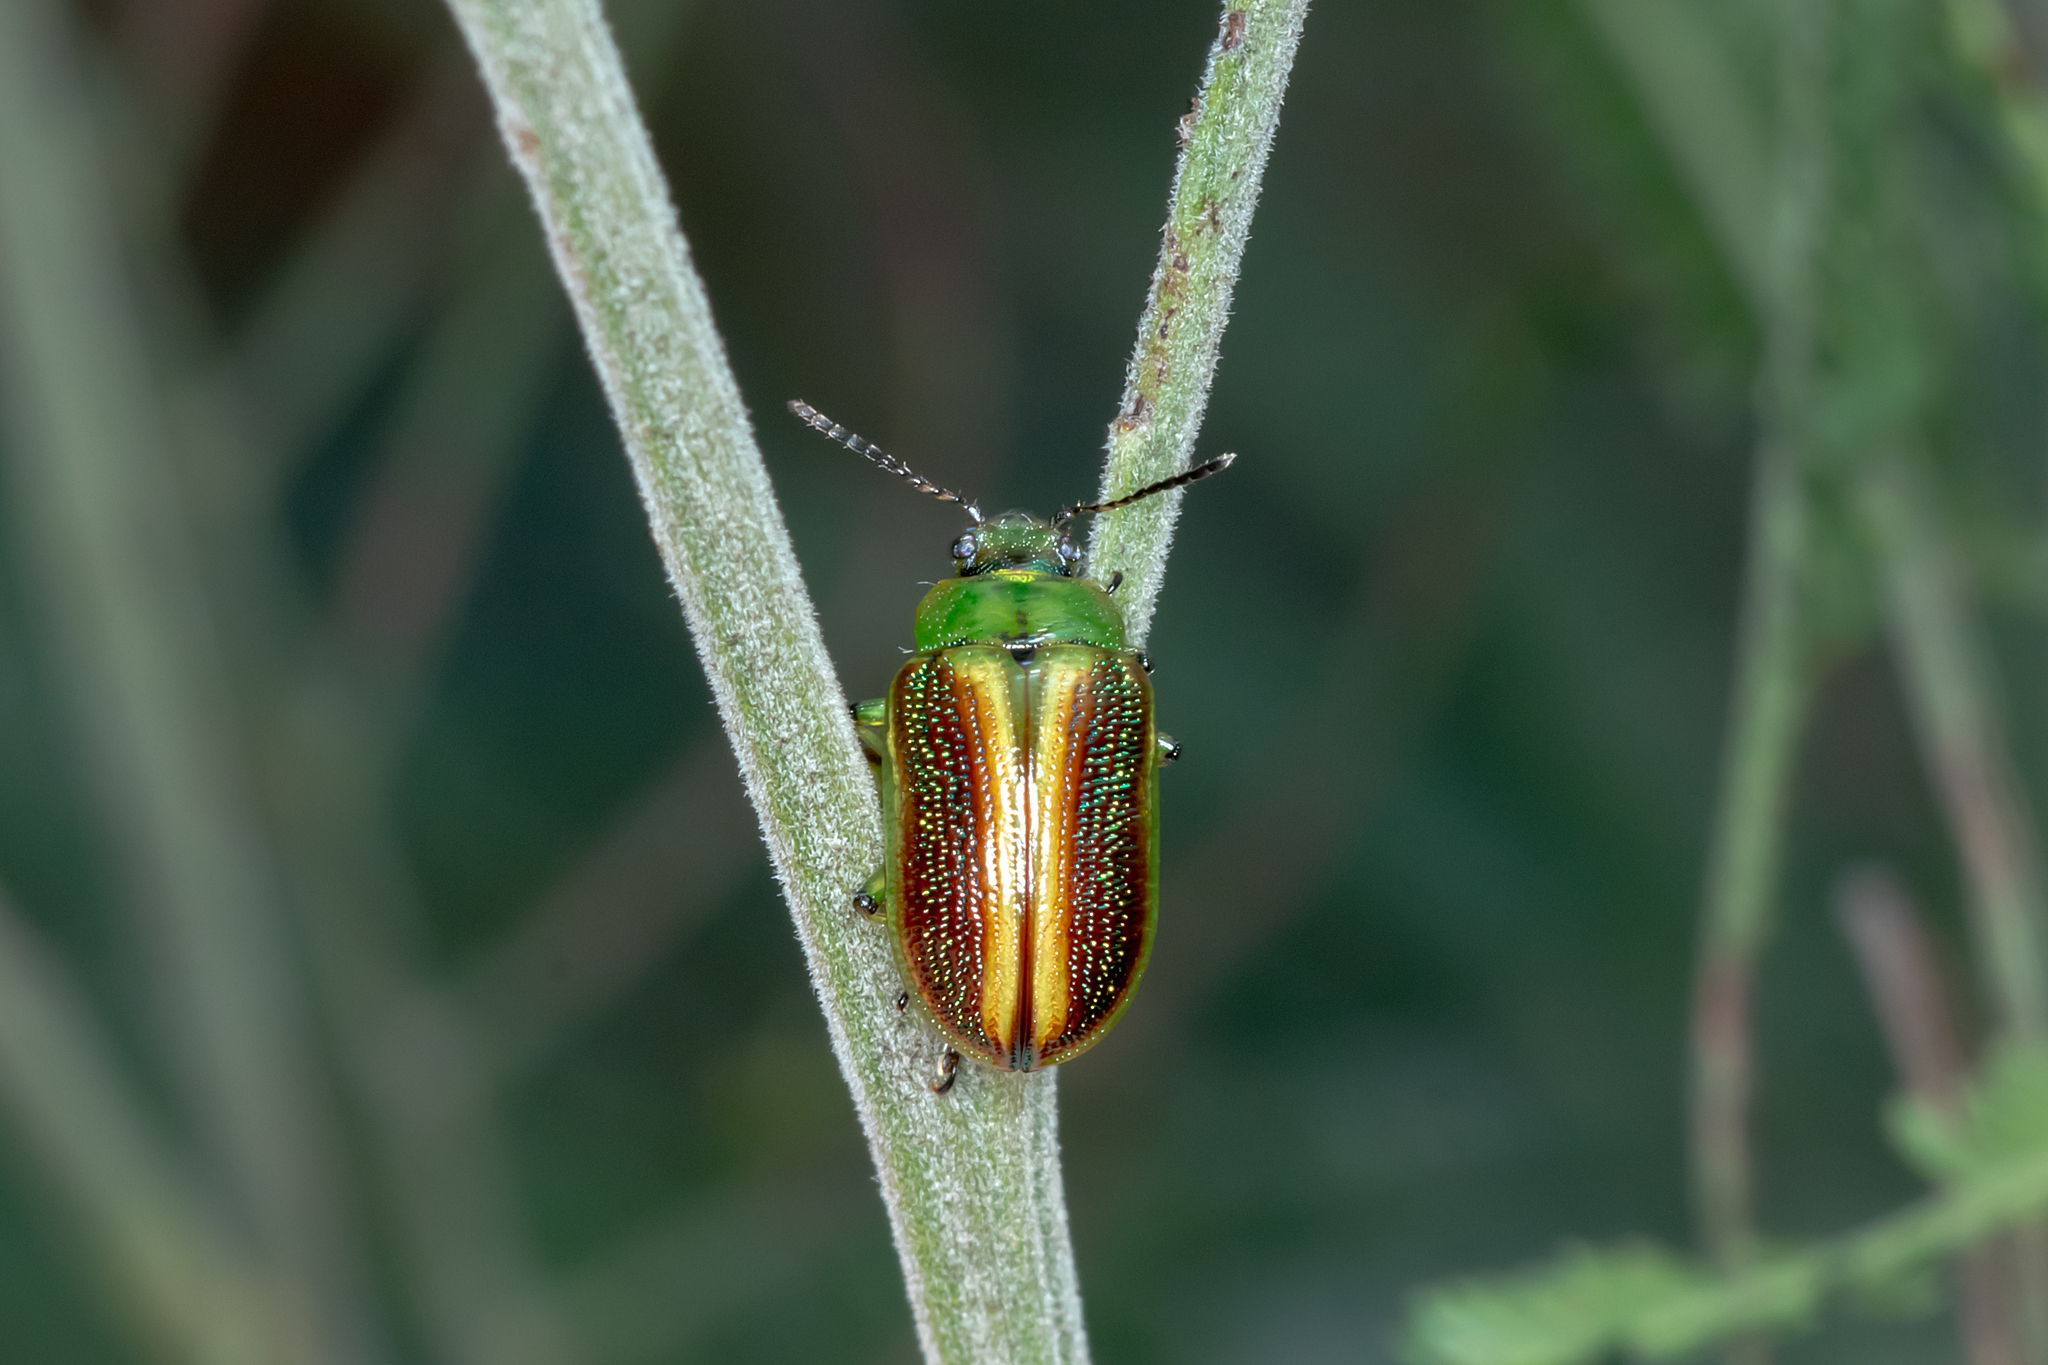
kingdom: Animalia
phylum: Arthropoda
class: Insecta
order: Coleoptera
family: Chrysomelidae
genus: Calomela
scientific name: Calomela
